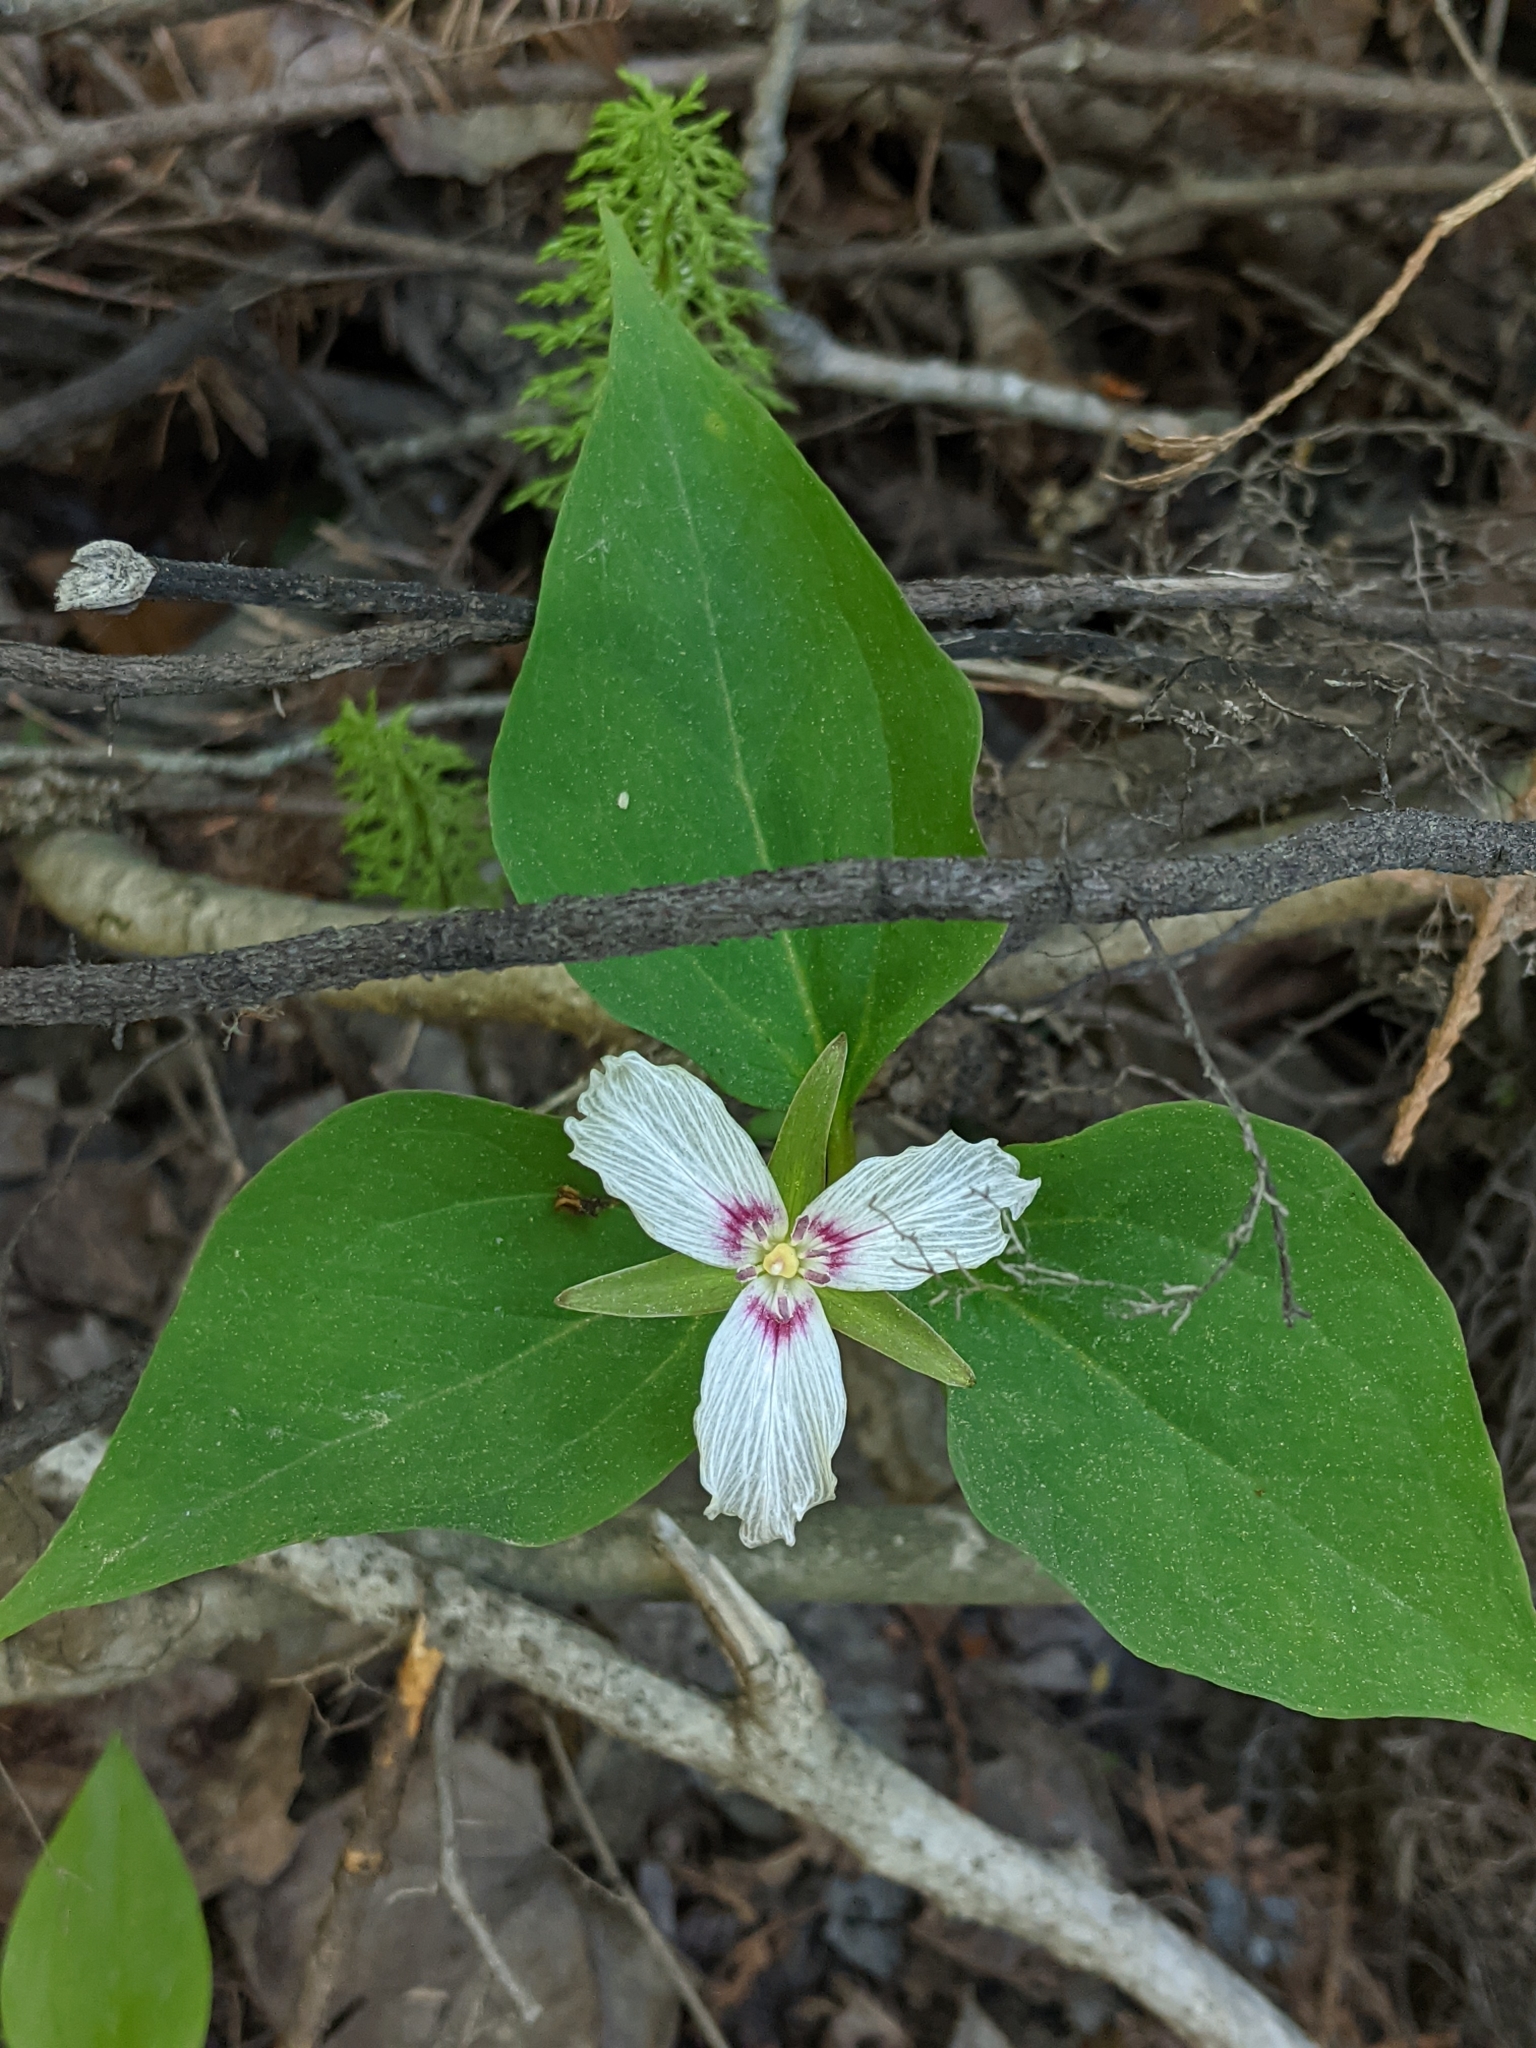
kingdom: Plantae
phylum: Tracheophyta
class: Liliopsida
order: Liliales
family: Melanthiaceae
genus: Trillium
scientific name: Trillium undulatum
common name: Paint trillium
